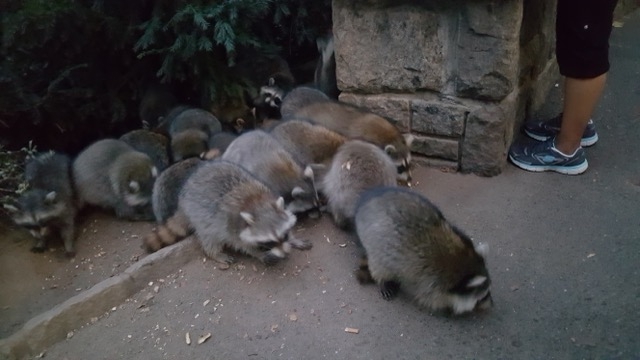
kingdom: Animalia
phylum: Chordata
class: Mammalia
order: Carnivora
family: Procyonidae
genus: Procyon
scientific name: Procyon lotor
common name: Raccoon
